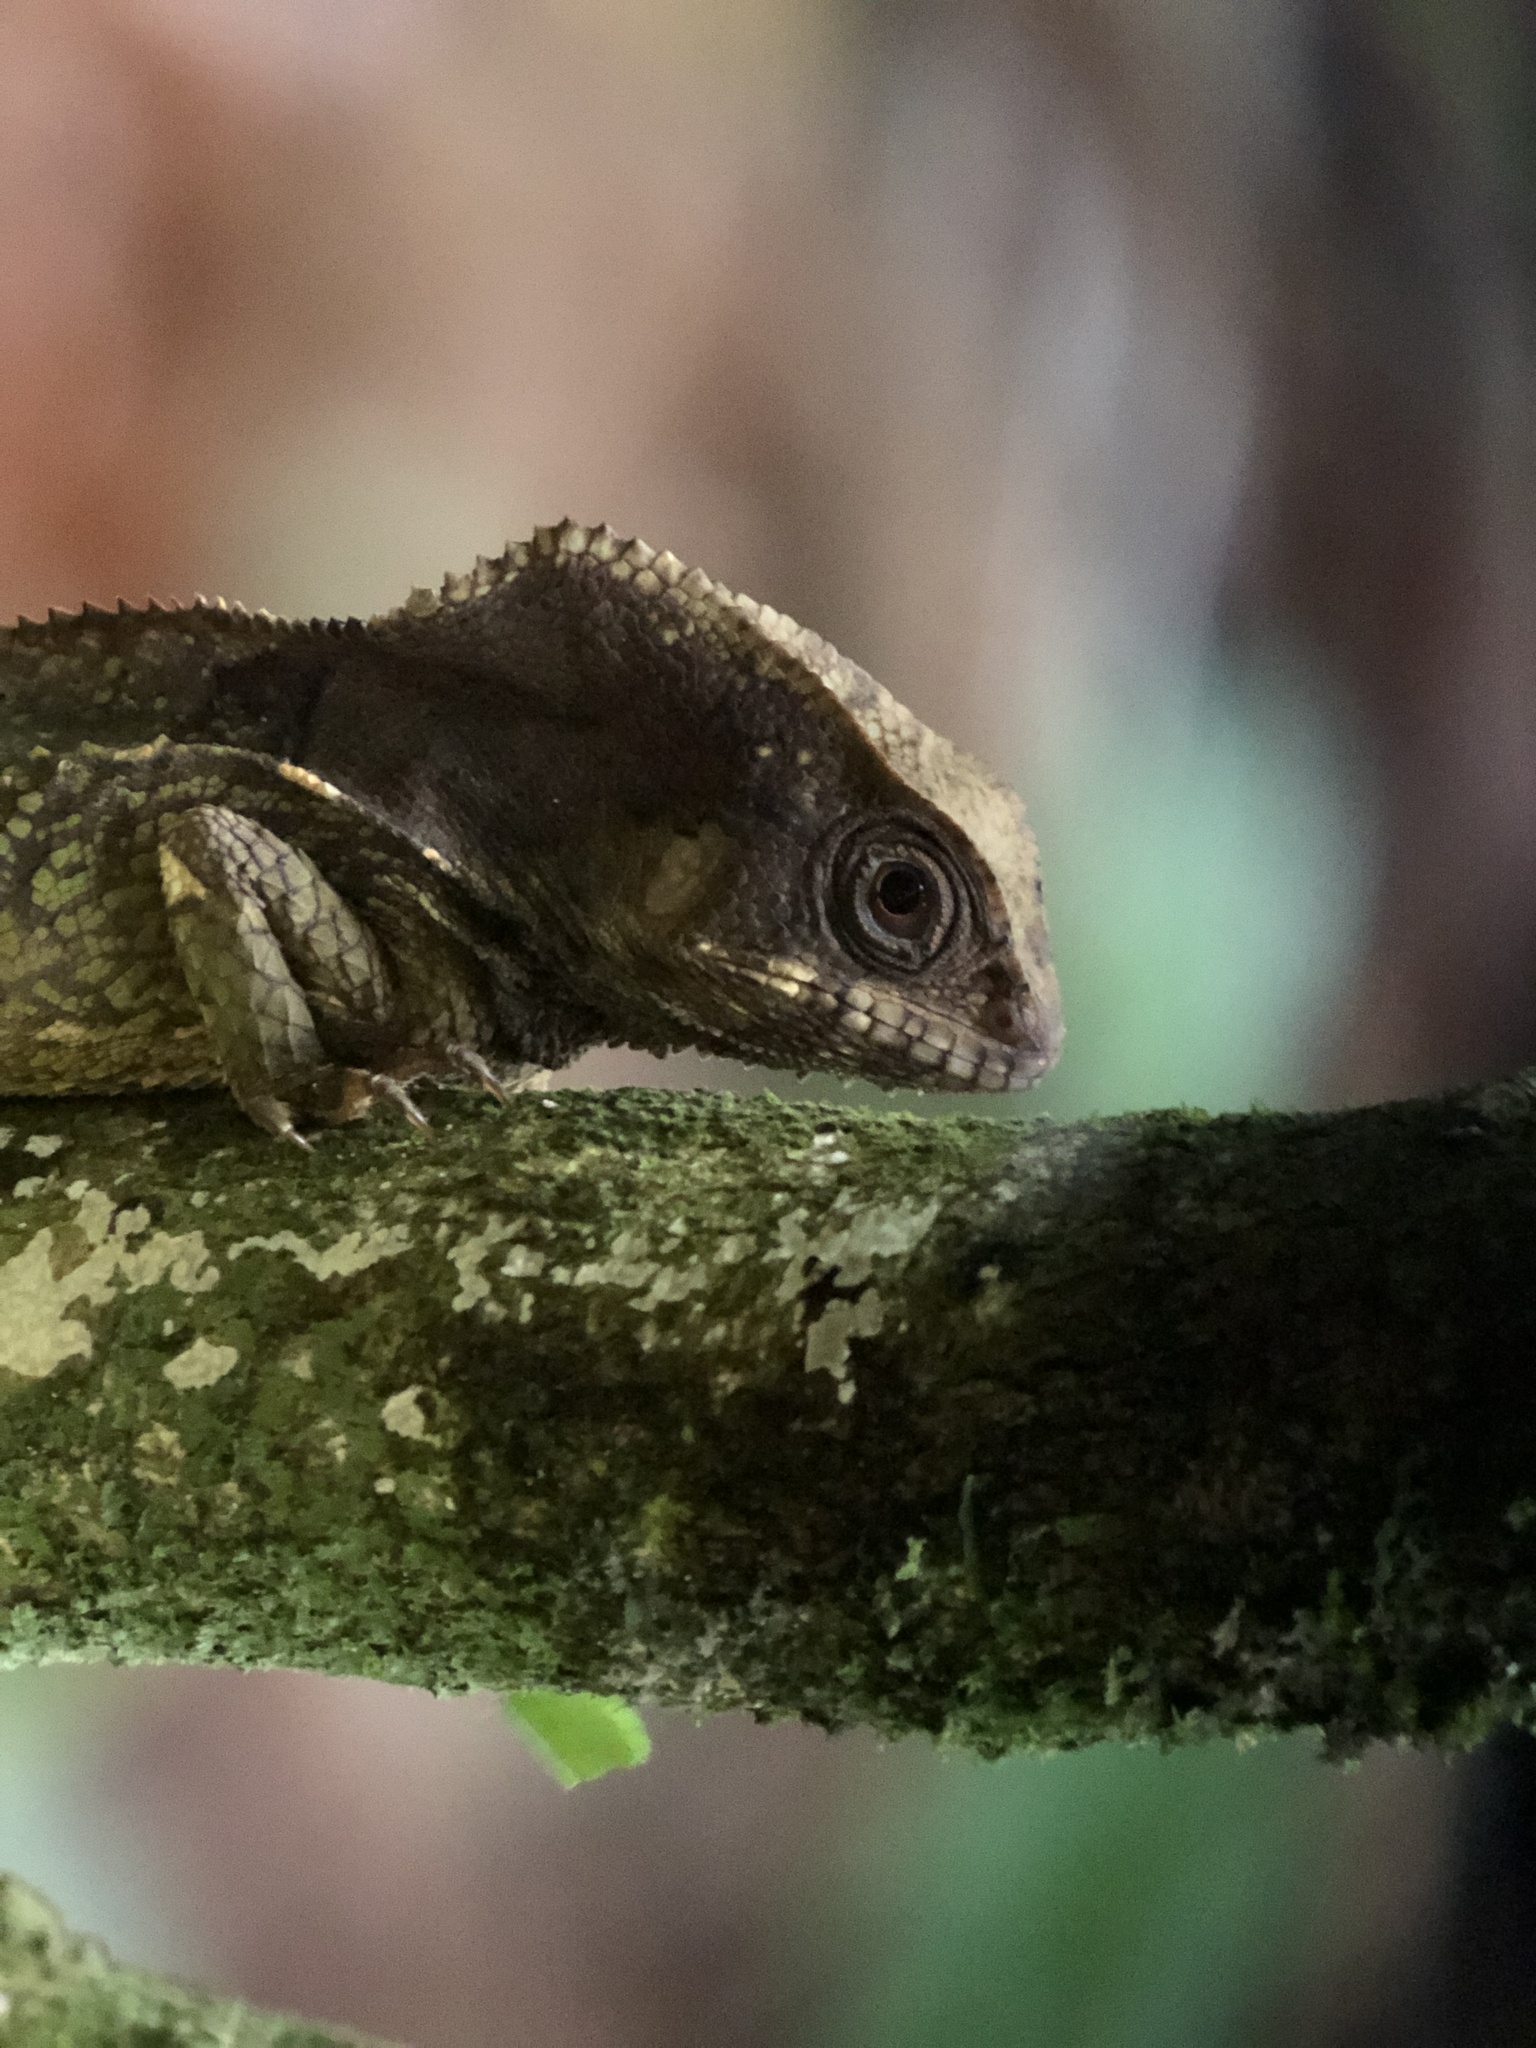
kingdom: Animalia
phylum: Chordata
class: Squamata
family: Corytophanidae
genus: Corytophanes
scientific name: Corytophanes cristatus
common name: Smooth helmeted iguana
